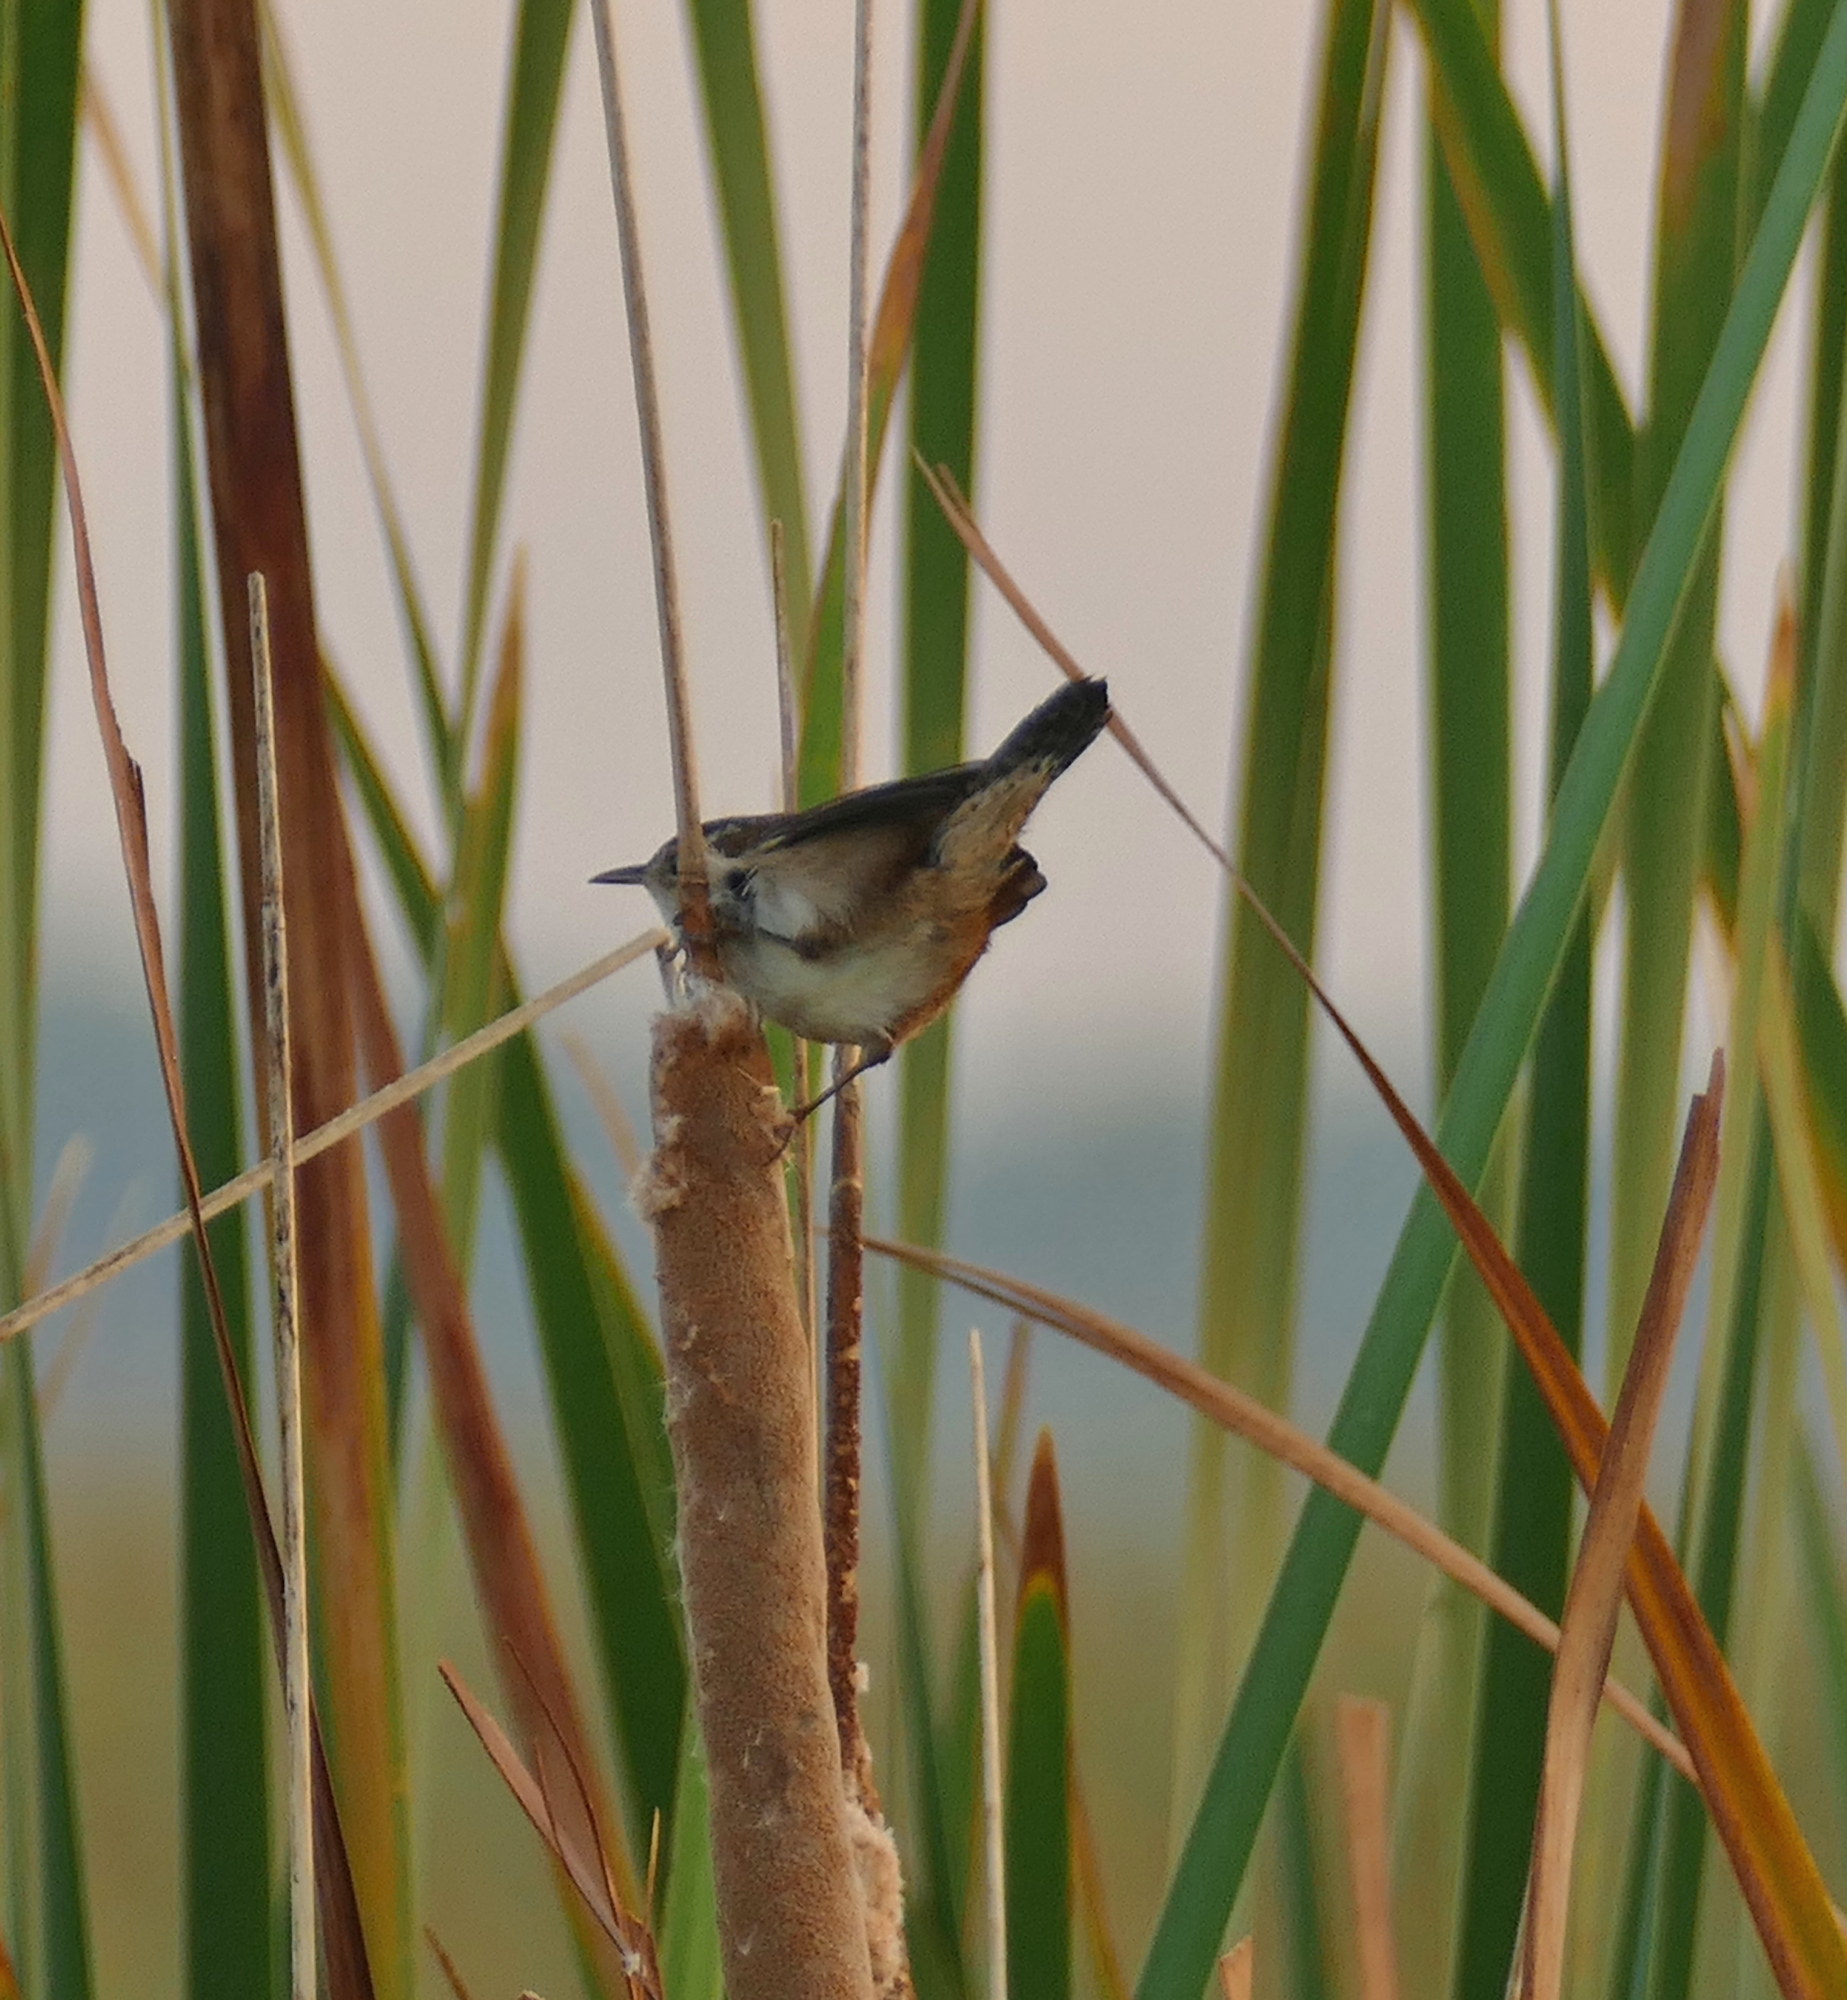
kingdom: Animalia
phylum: Chordata
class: Aves
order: Passeriformes
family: Troglodytidae
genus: Cistothorus
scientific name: Cistothorus palustris
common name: Marsh wren
